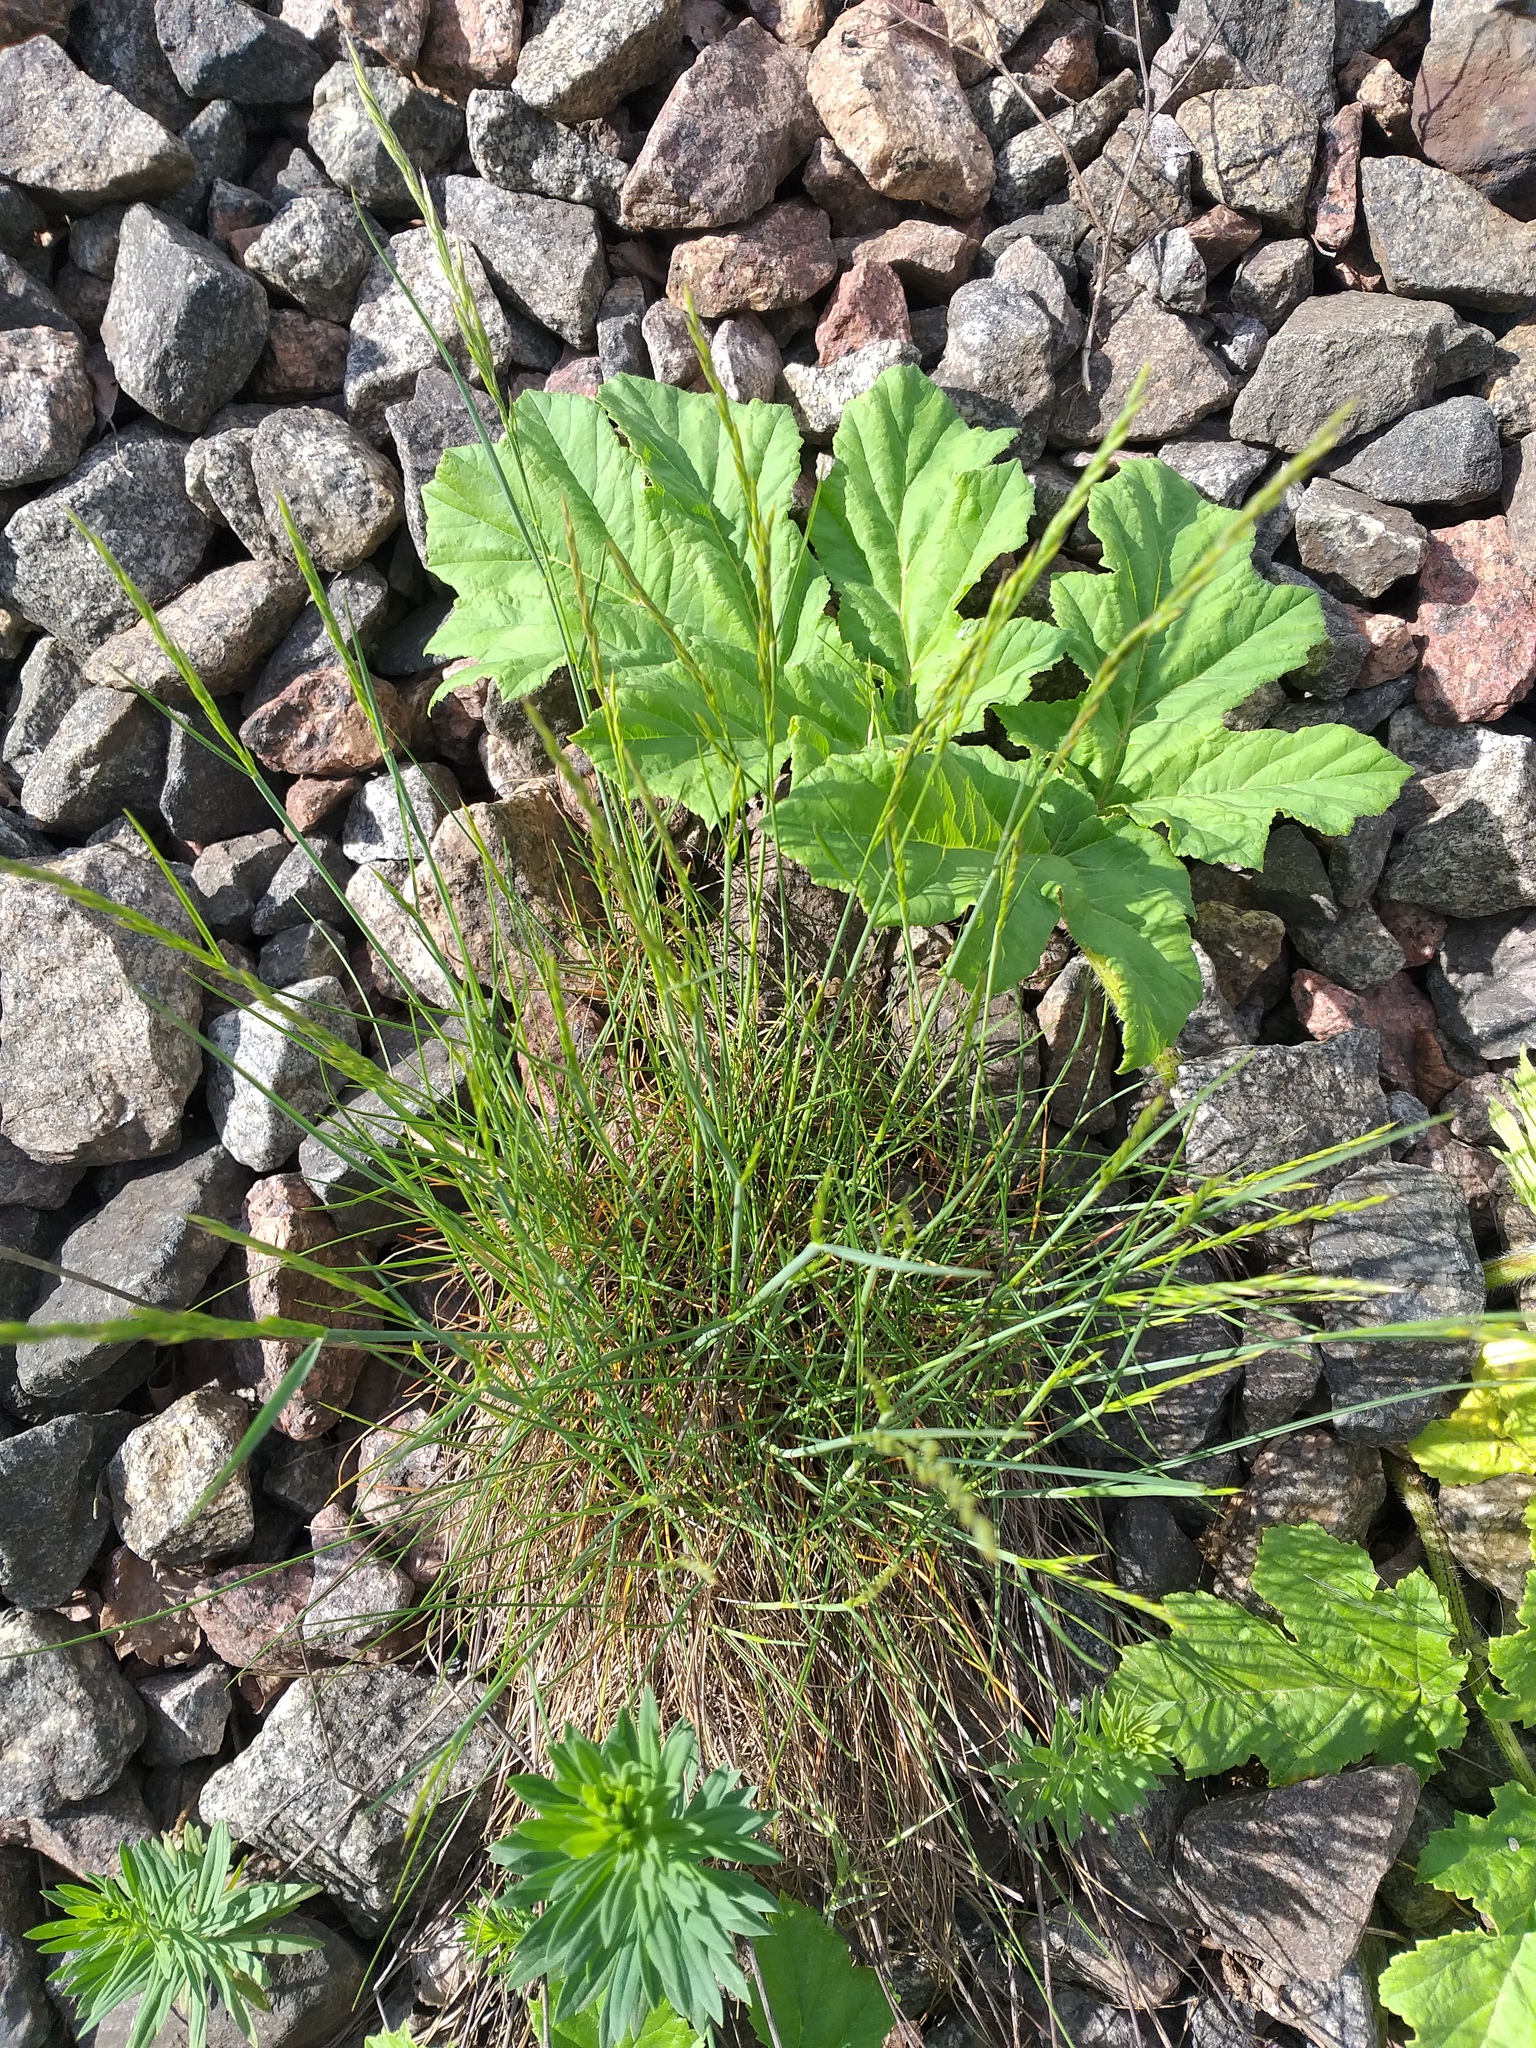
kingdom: Plantae
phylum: Tracheophyta
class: Liliopsida
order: Poales
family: Poaceae
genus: Festuca
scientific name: Festuca rubra
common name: Red fescue
